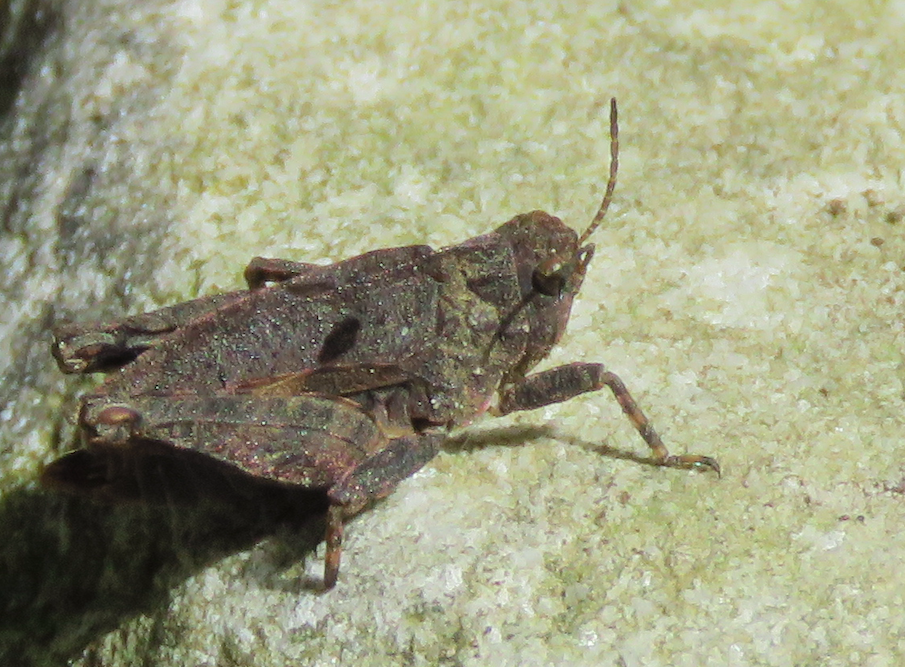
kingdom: Animalia
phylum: Arthropoda
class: Insecta
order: Orthoptera
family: Tetrigidae
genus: Tetrix
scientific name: Tetrix transsylvanica
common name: Transsylvanian wingless groundhopper
